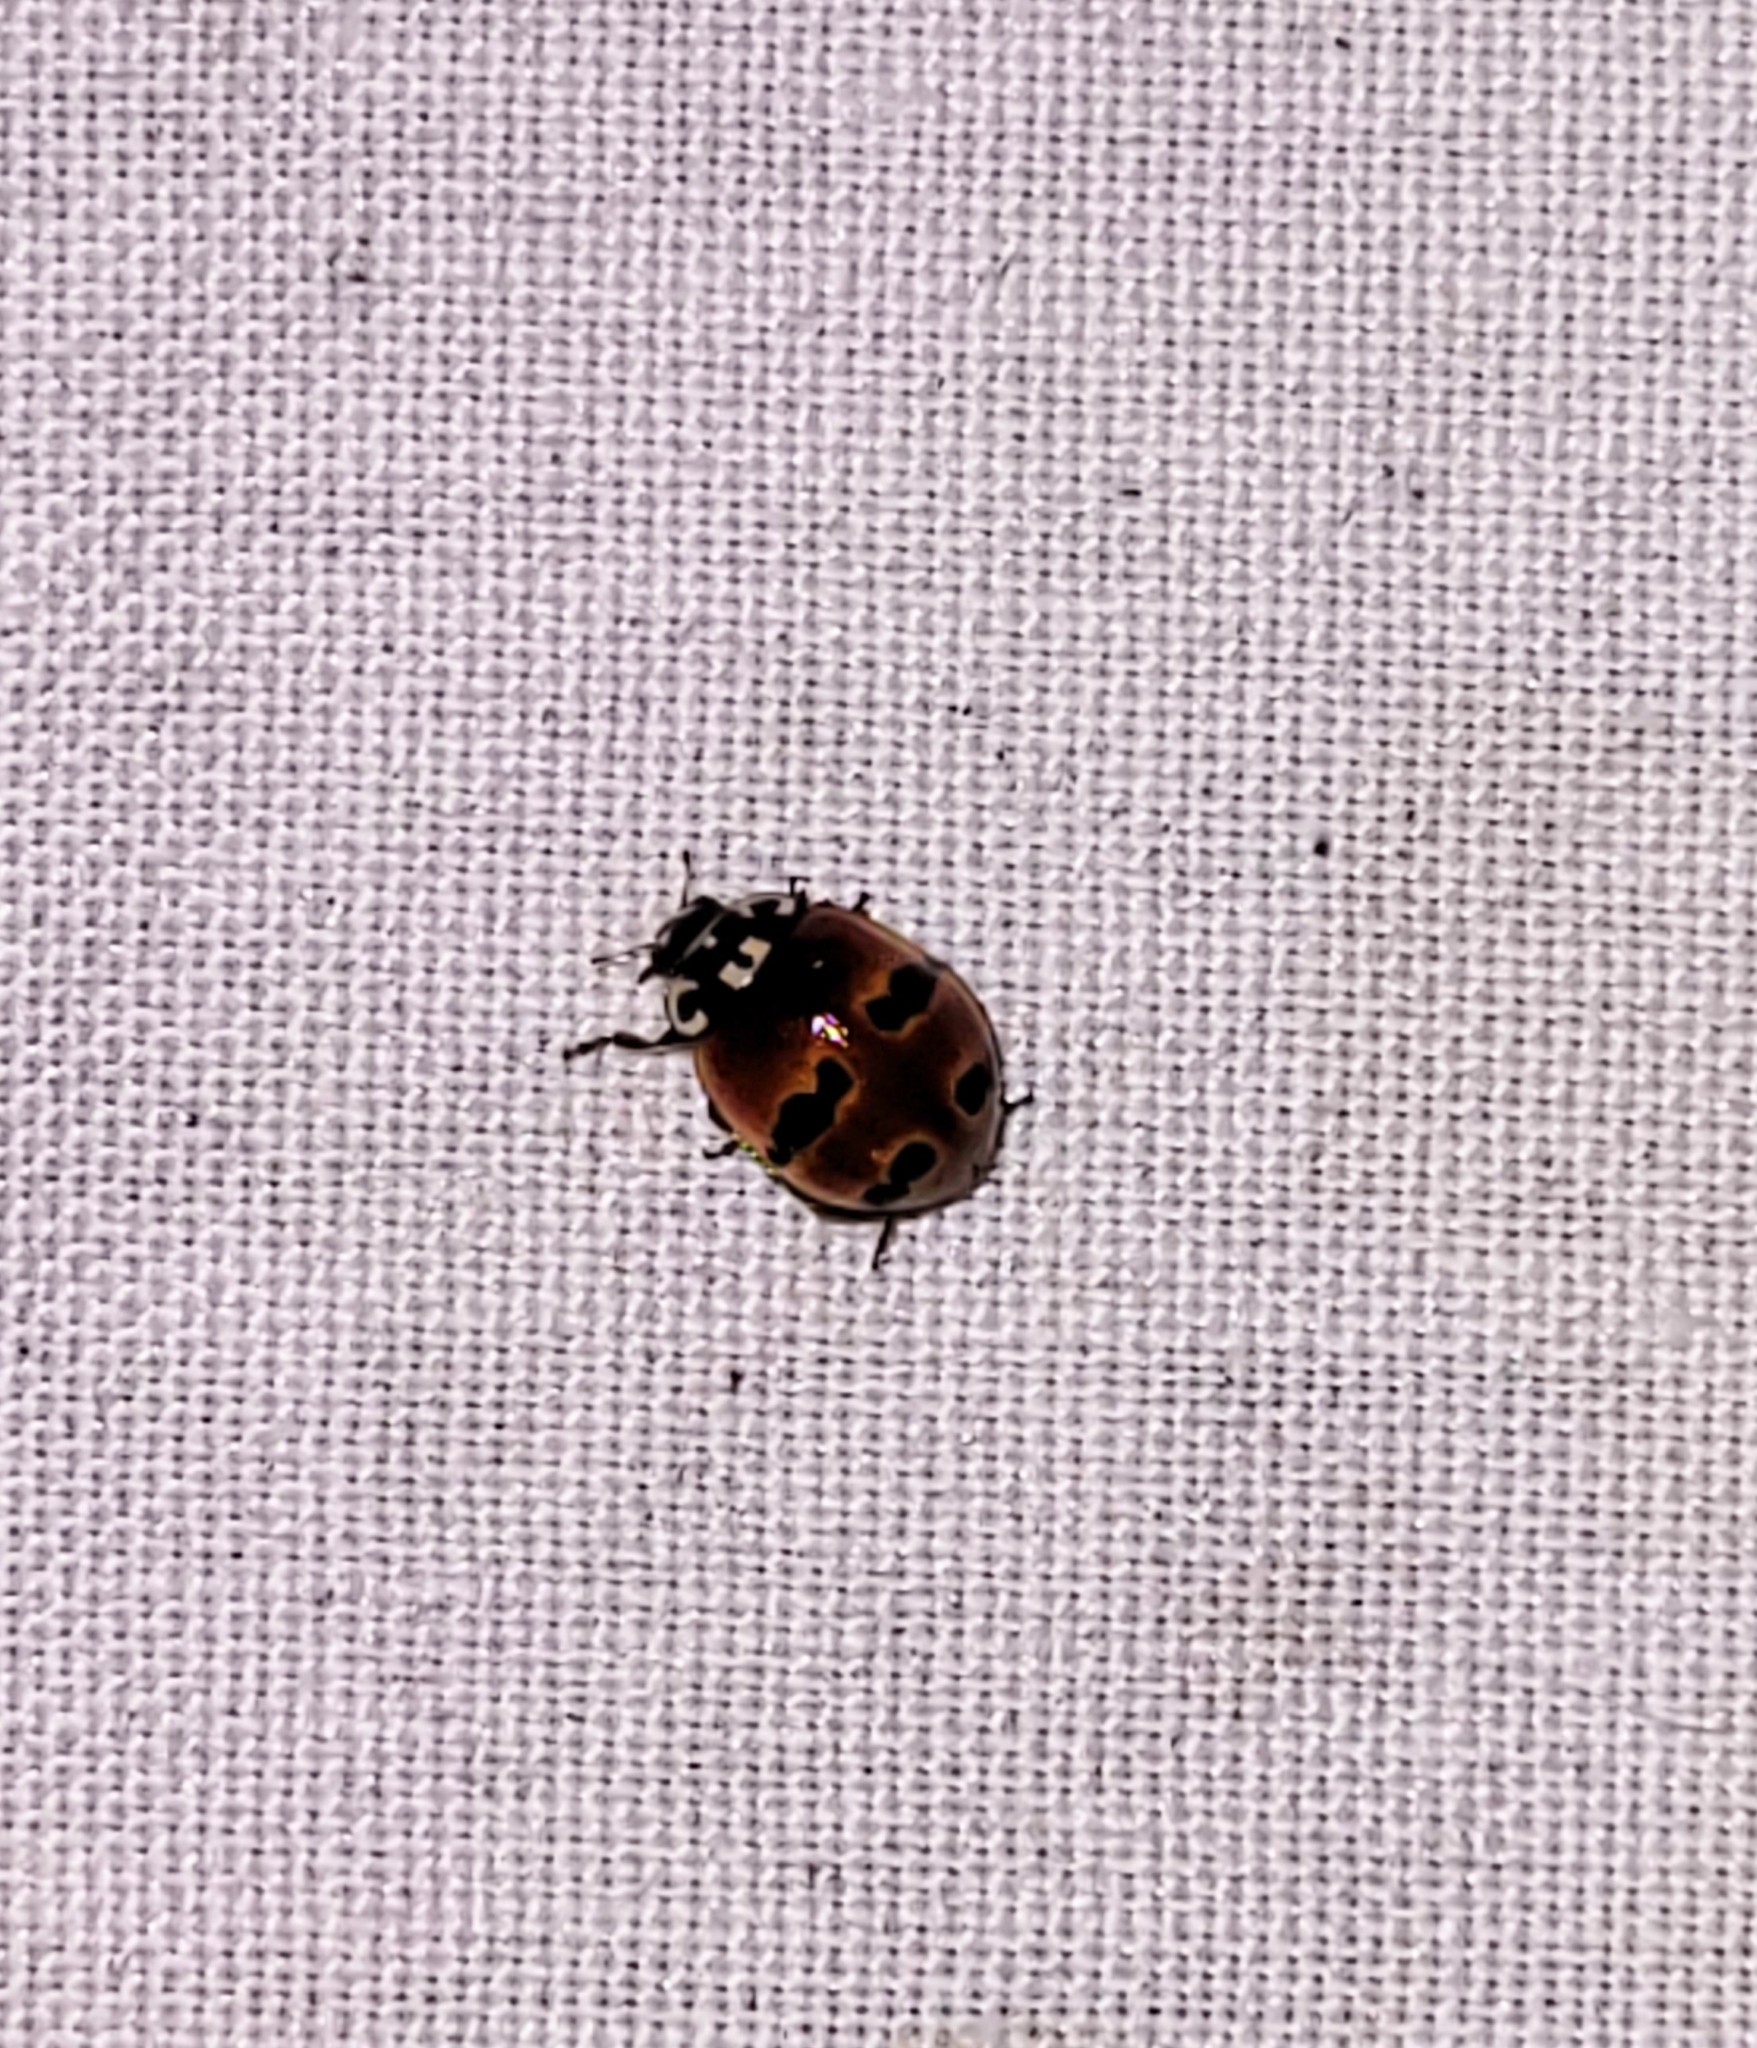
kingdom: Animalia
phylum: Arthropoda
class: Insecta
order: Coleoptera
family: Coccinellidae
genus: Adalia
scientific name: Adalia bipunctata
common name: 2-spot ladybird
